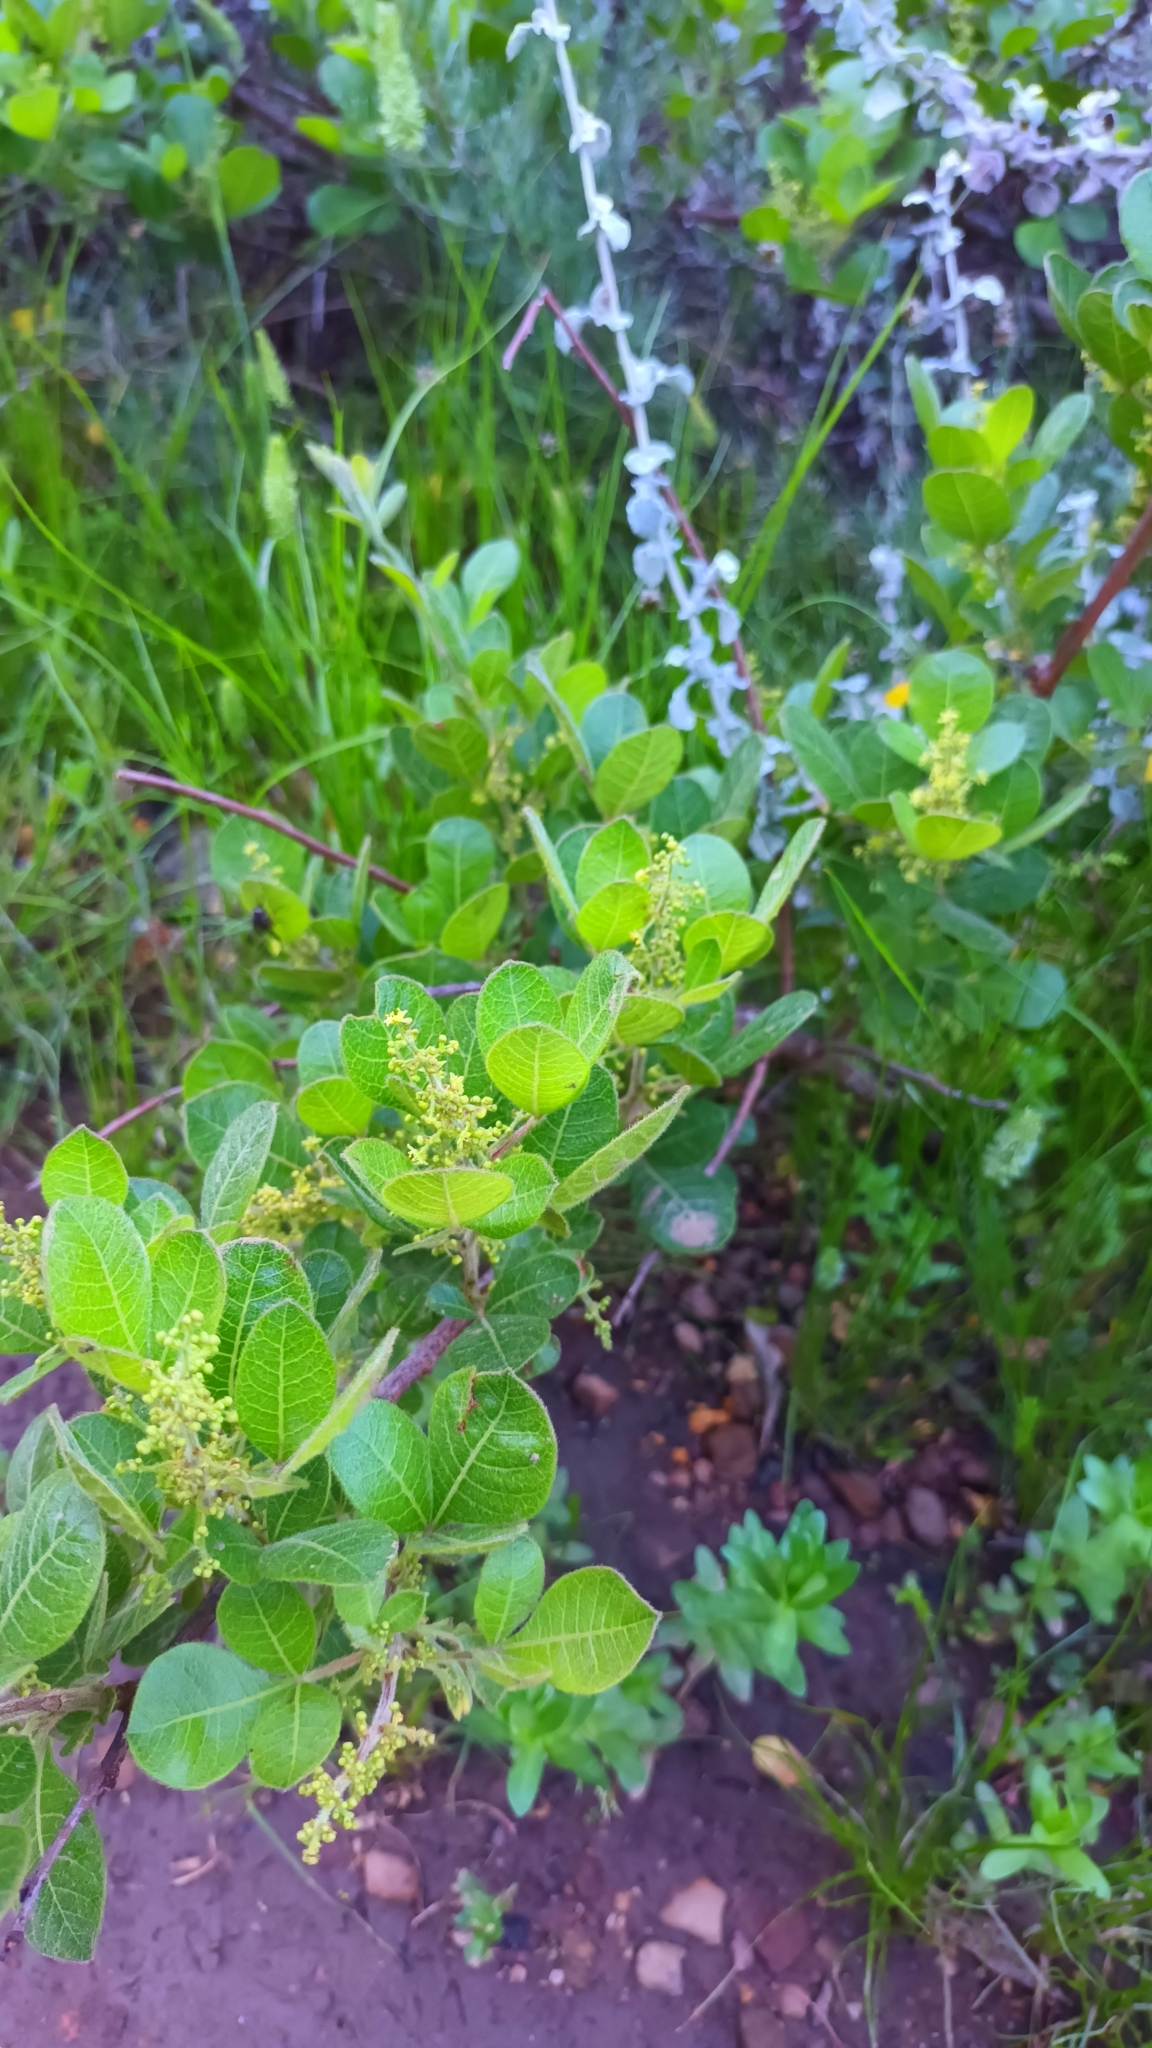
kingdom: Plantae
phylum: Tracheophyta
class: Magnoliopsida
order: Sapindales
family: Anacardiaceae
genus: Searsia
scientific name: Searsia laevigata
